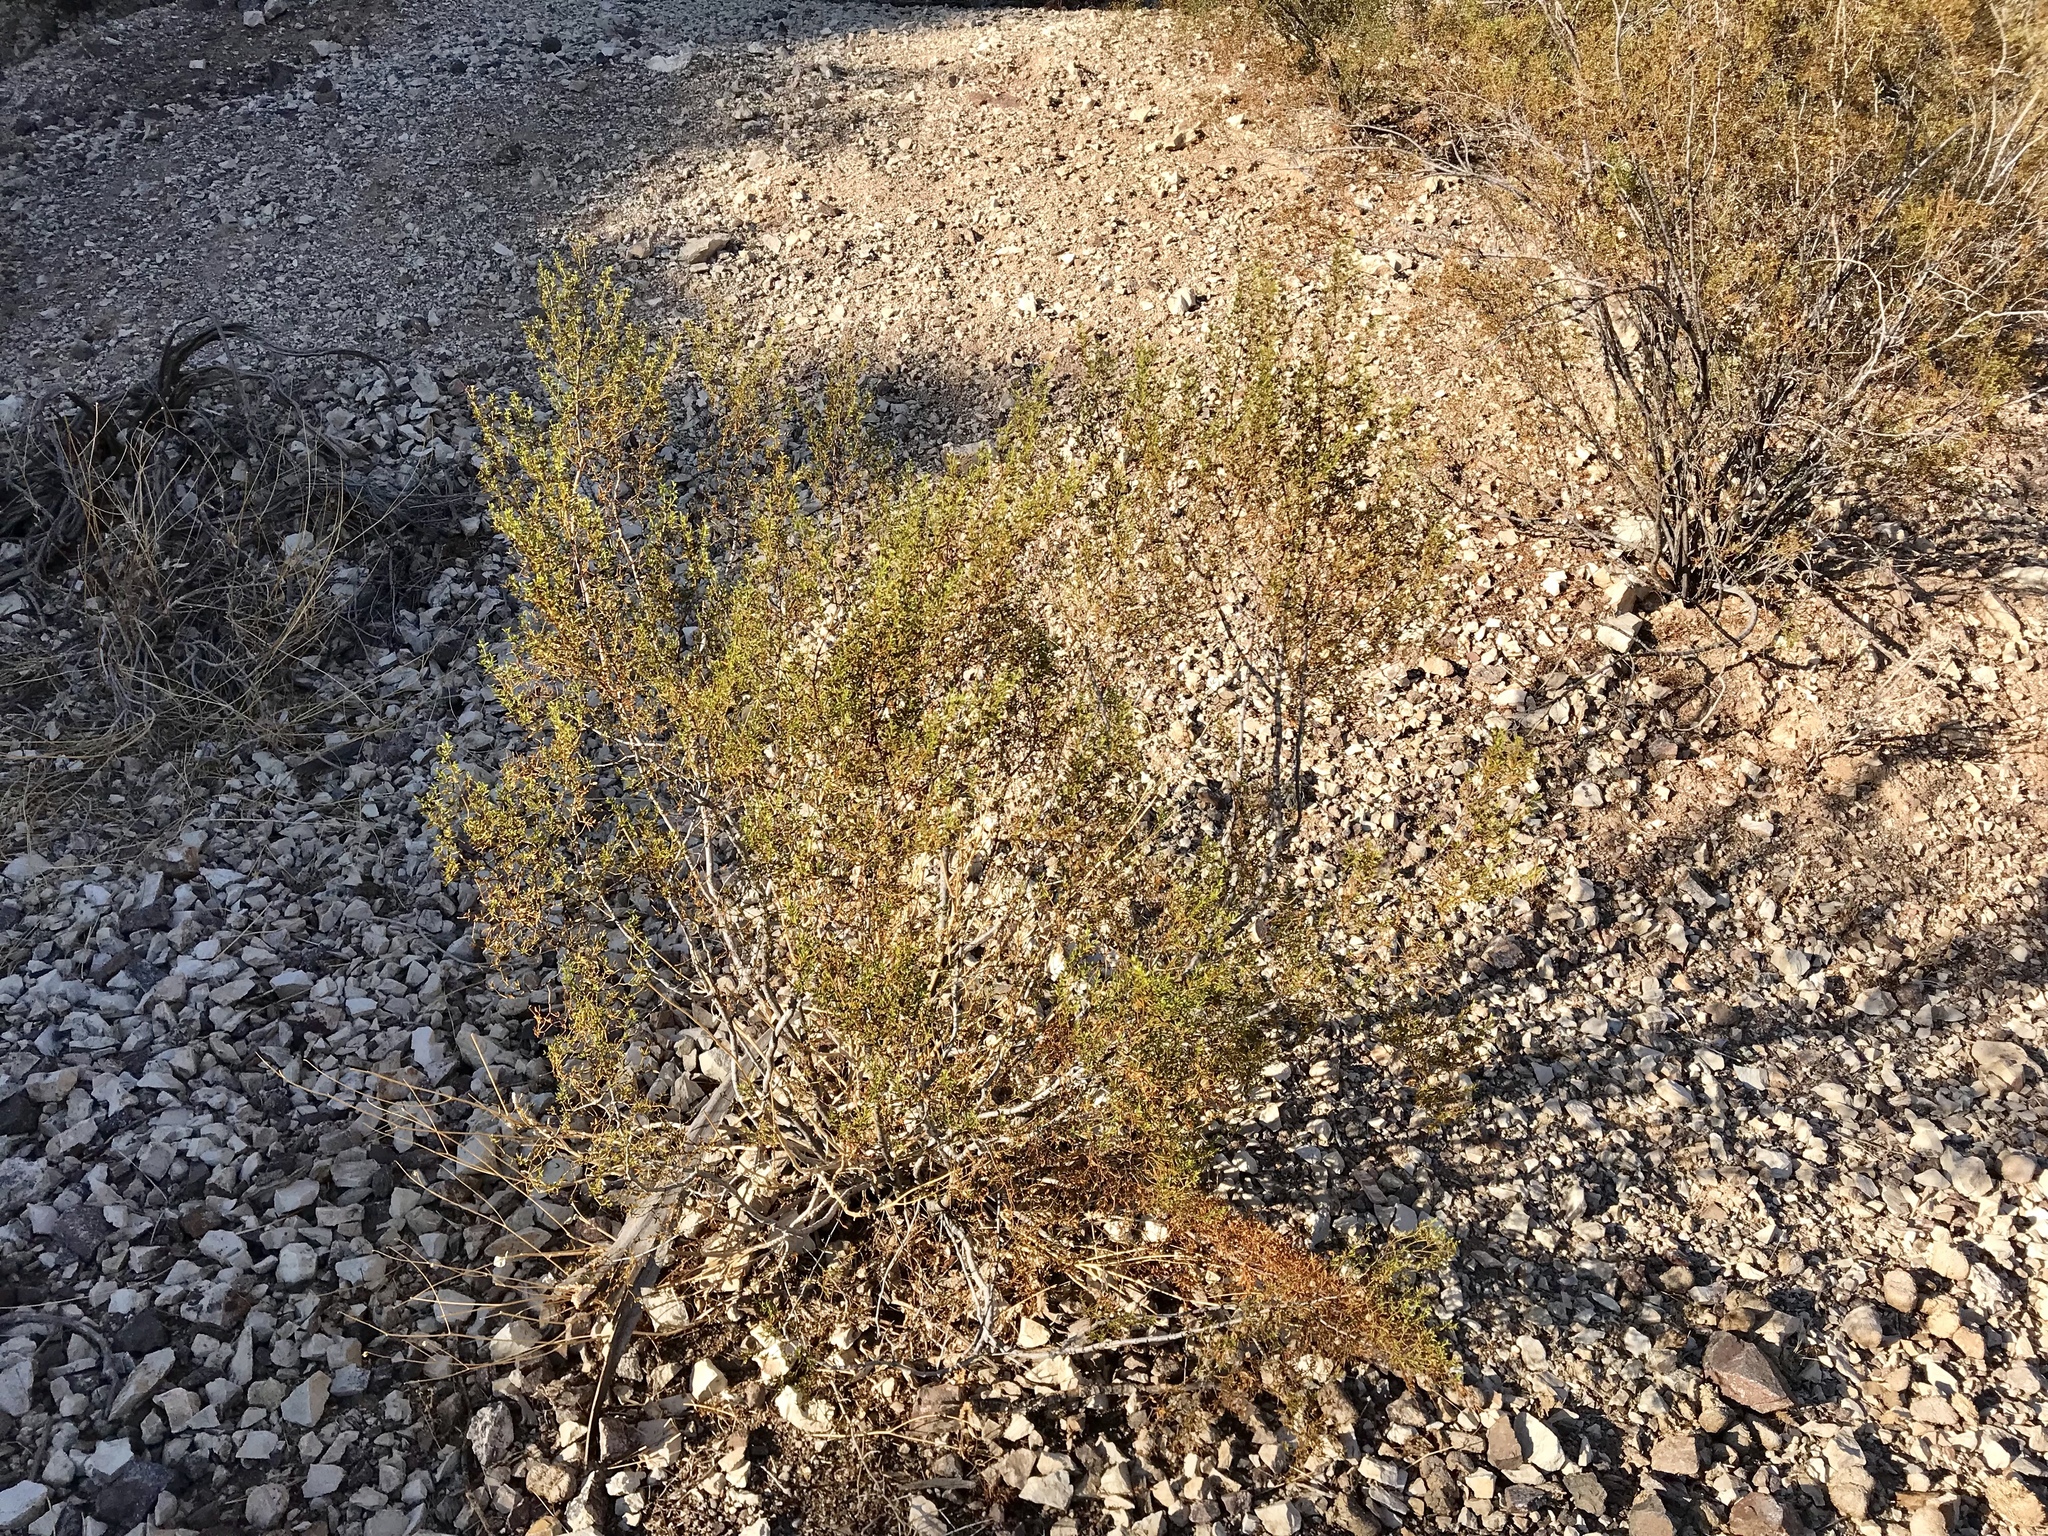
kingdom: Plantae
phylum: Tracheophyta
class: Magnoliopsida
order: Zygophyllales
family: Zygophyllaceae
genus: Larrea
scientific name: Larrea tridentata
